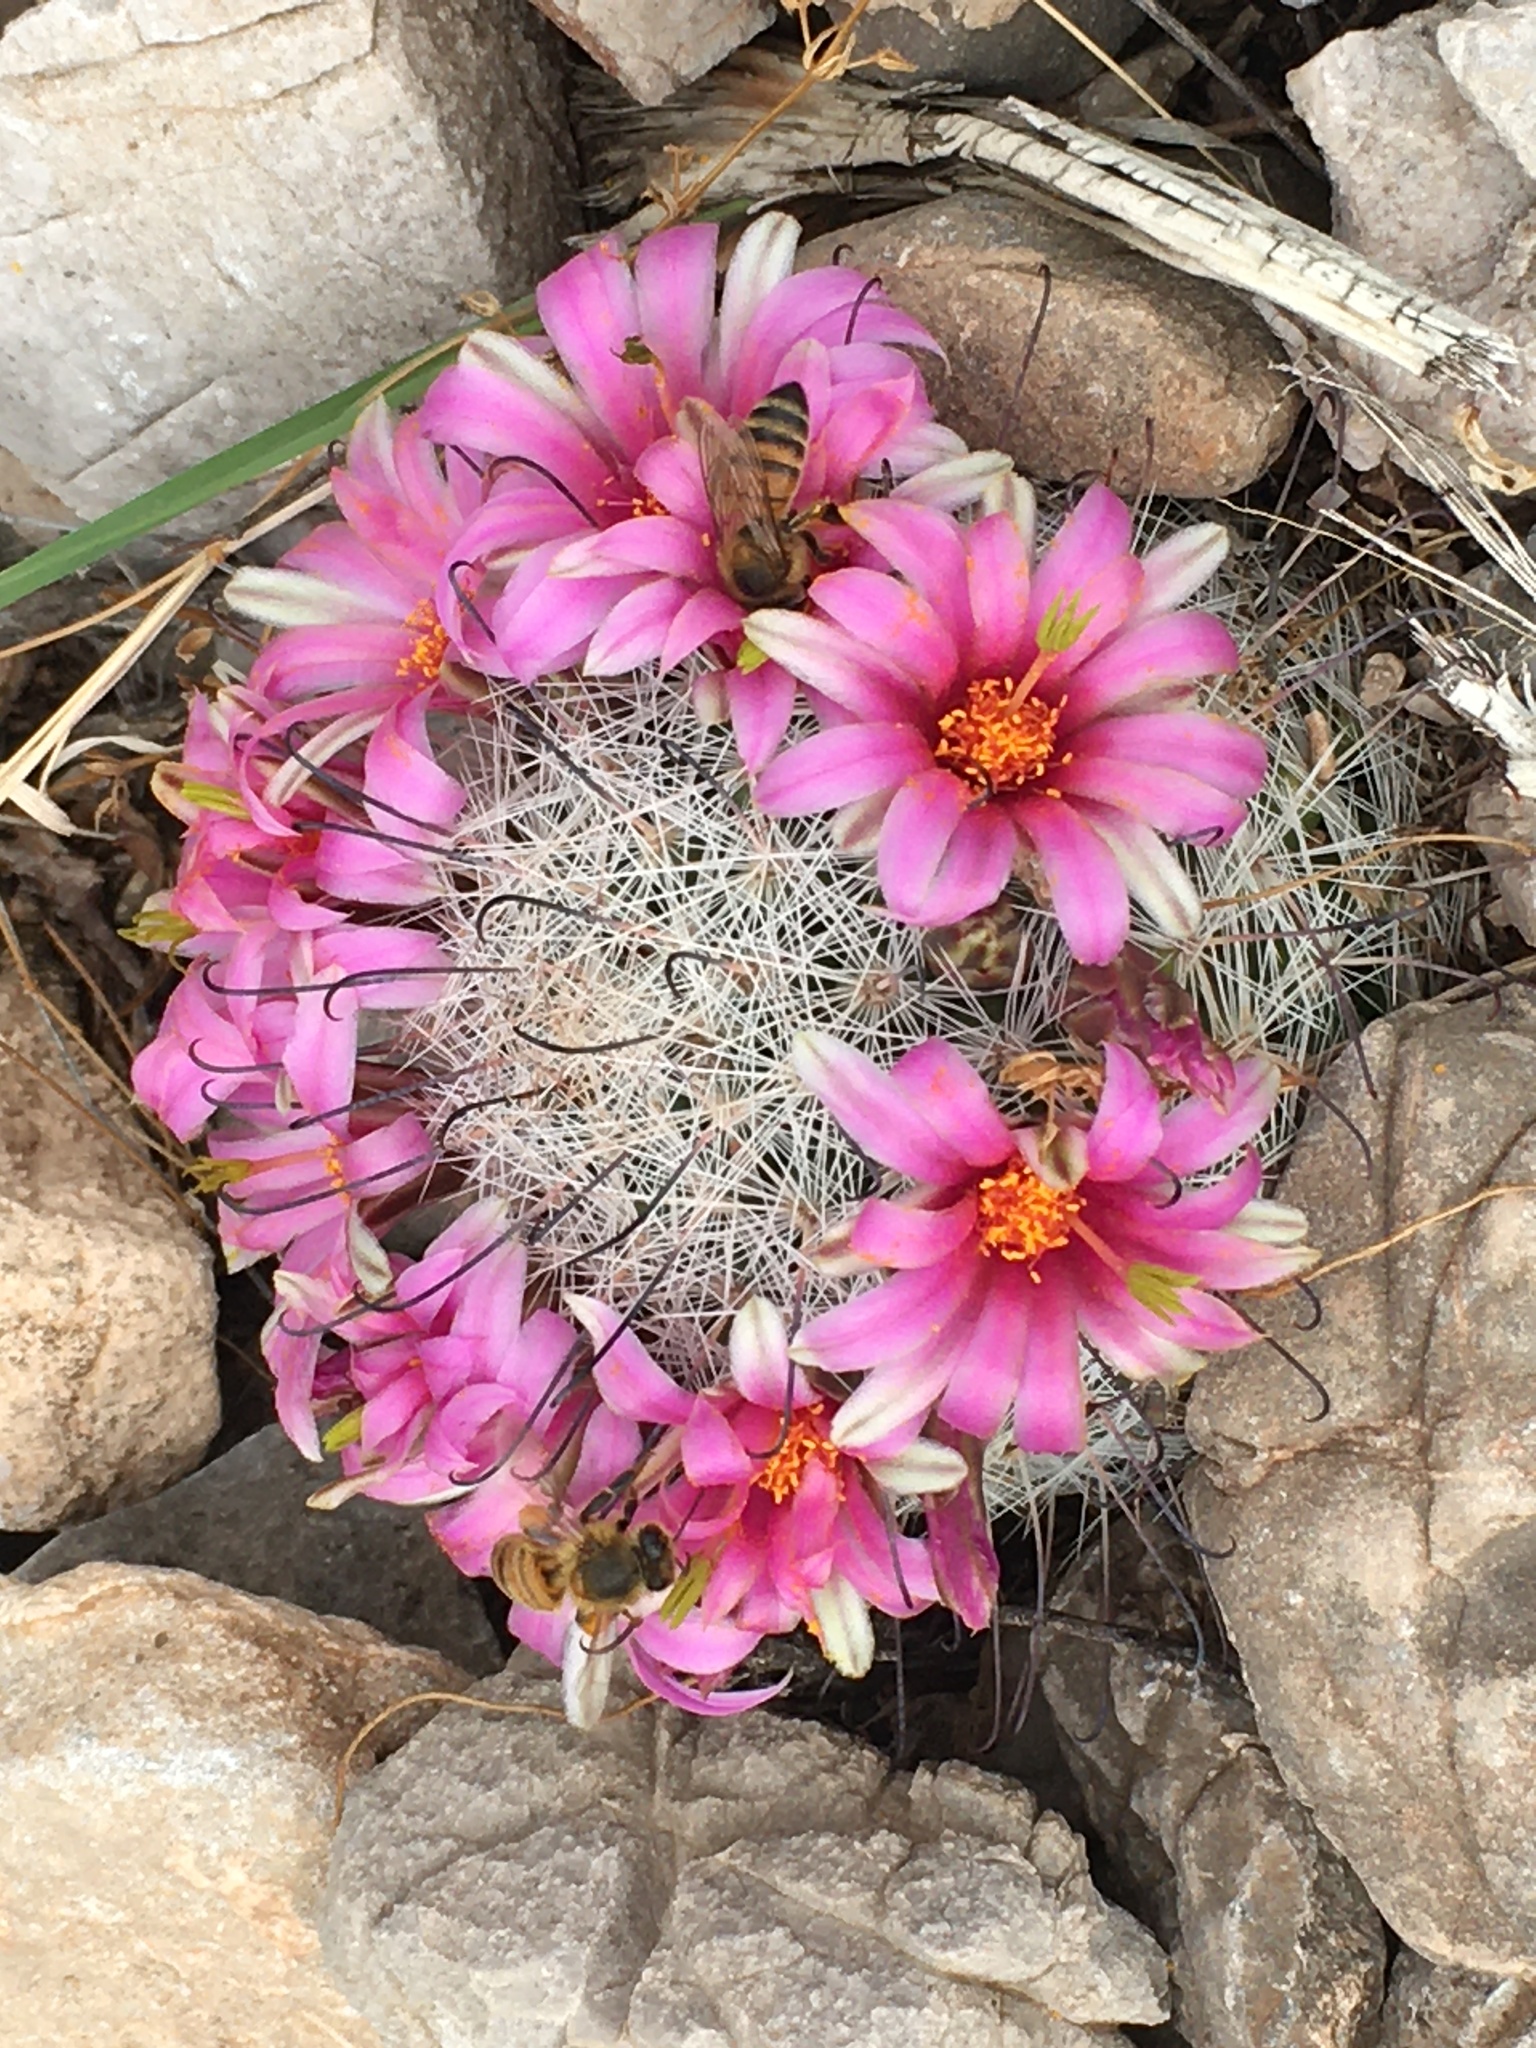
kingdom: Plantae
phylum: Tracheophyta
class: Magnoliopsida
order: Caryophyllales
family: Cactaceae
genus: Cochemiea
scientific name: Cochemiea grahamii
